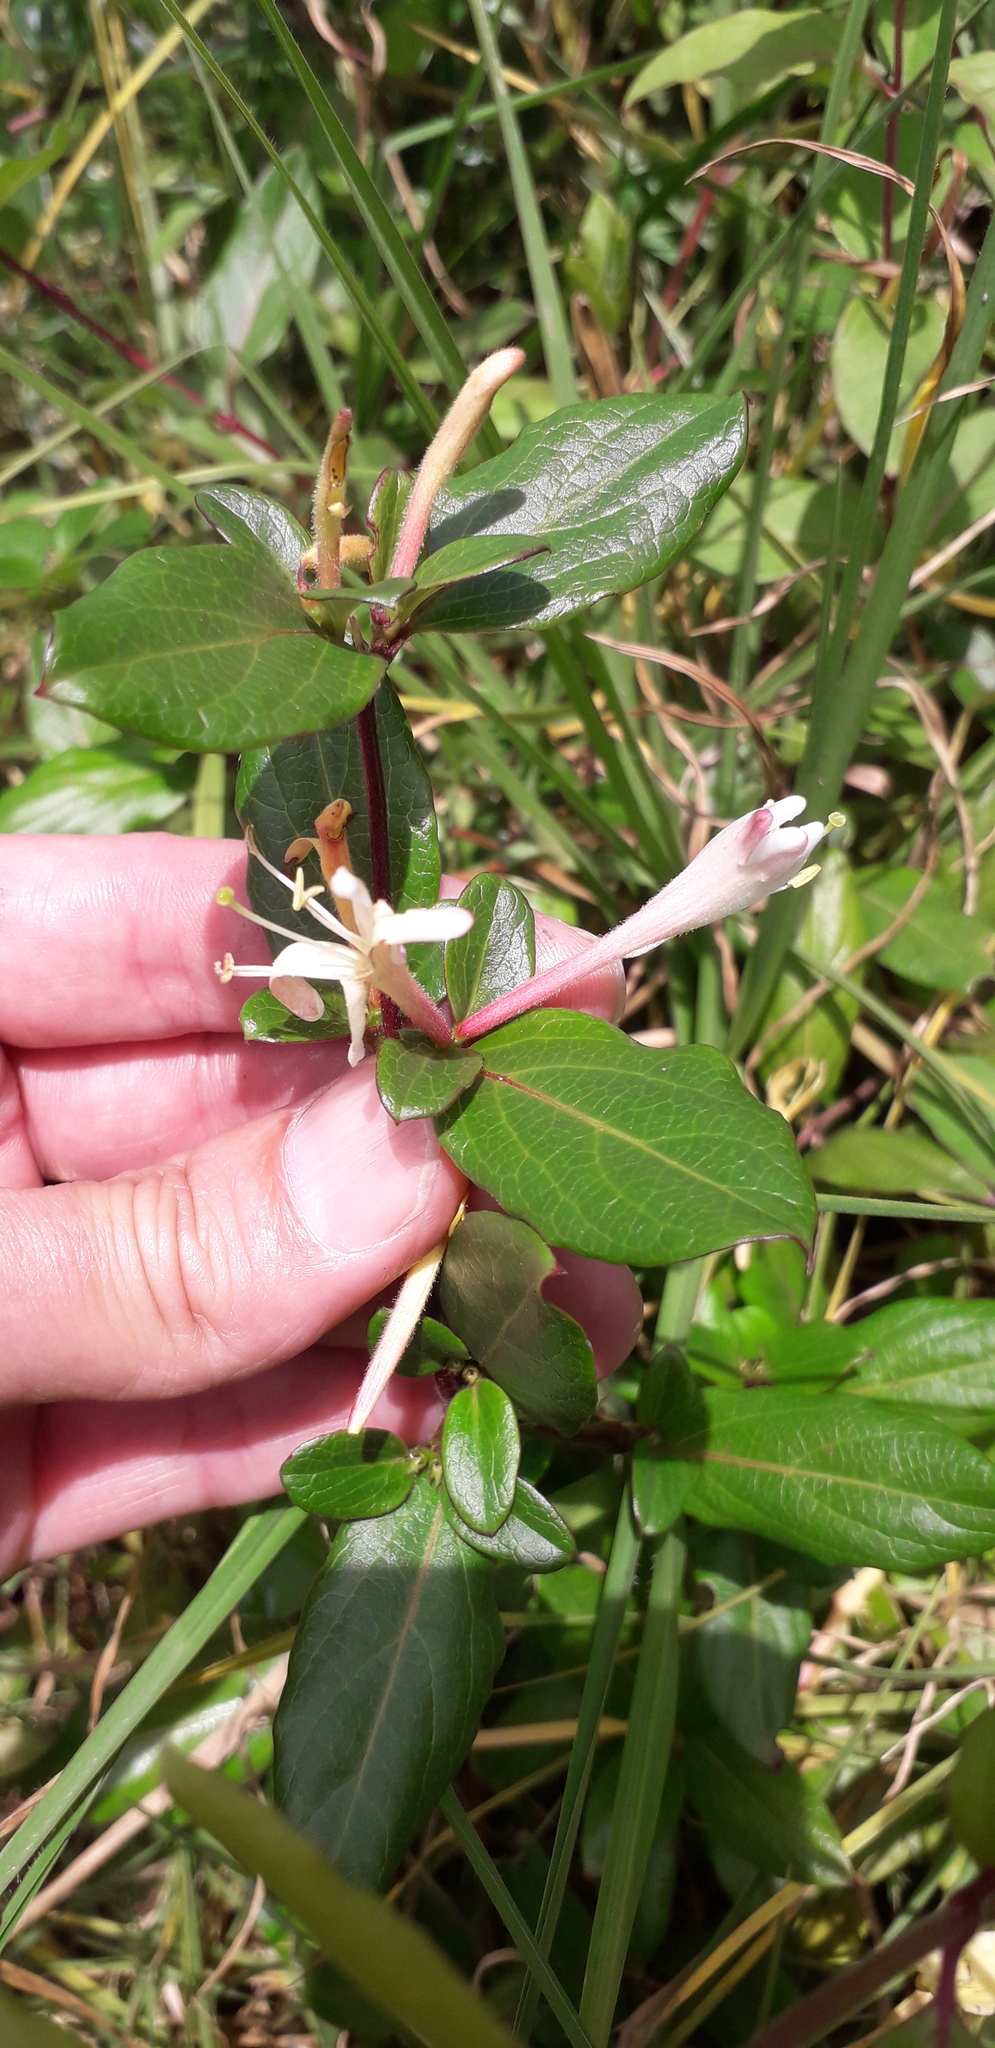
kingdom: Plantae
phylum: Tracheophyta
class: Magnoliopsida
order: Dipsacales
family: Caprifoliaceae
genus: Lonicera
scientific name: Lonicera japonica
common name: Japanese honeysuckle
